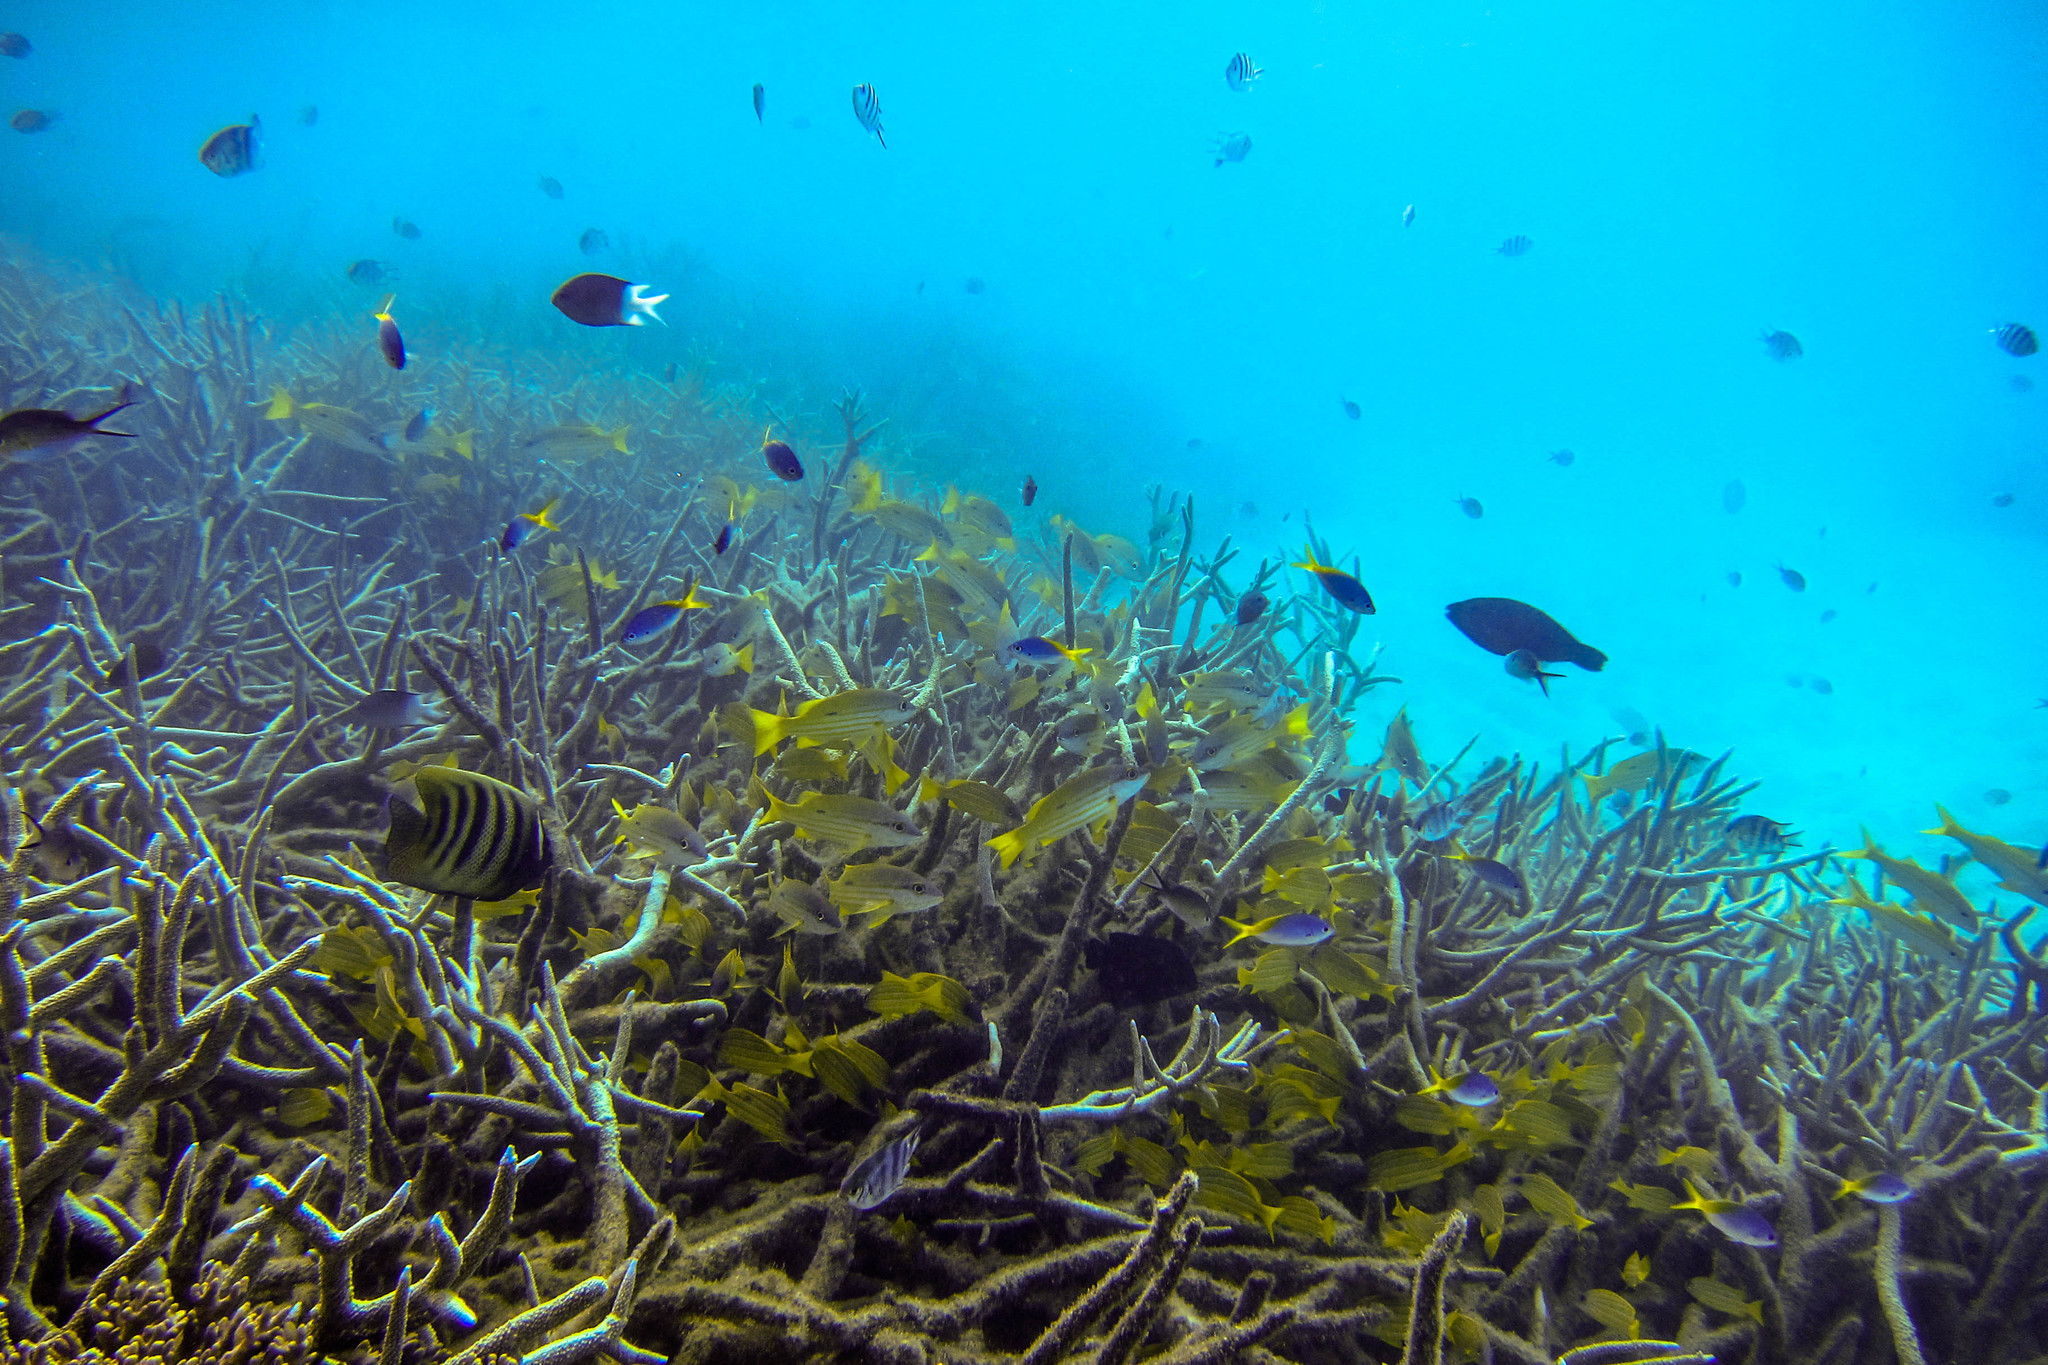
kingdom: Animalia
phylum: Chordata
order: Perciformes
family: Pomacanthidae
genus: Pomacanthus
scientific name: Pomacanthus sexstriatus
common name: Six-banded angelfish
